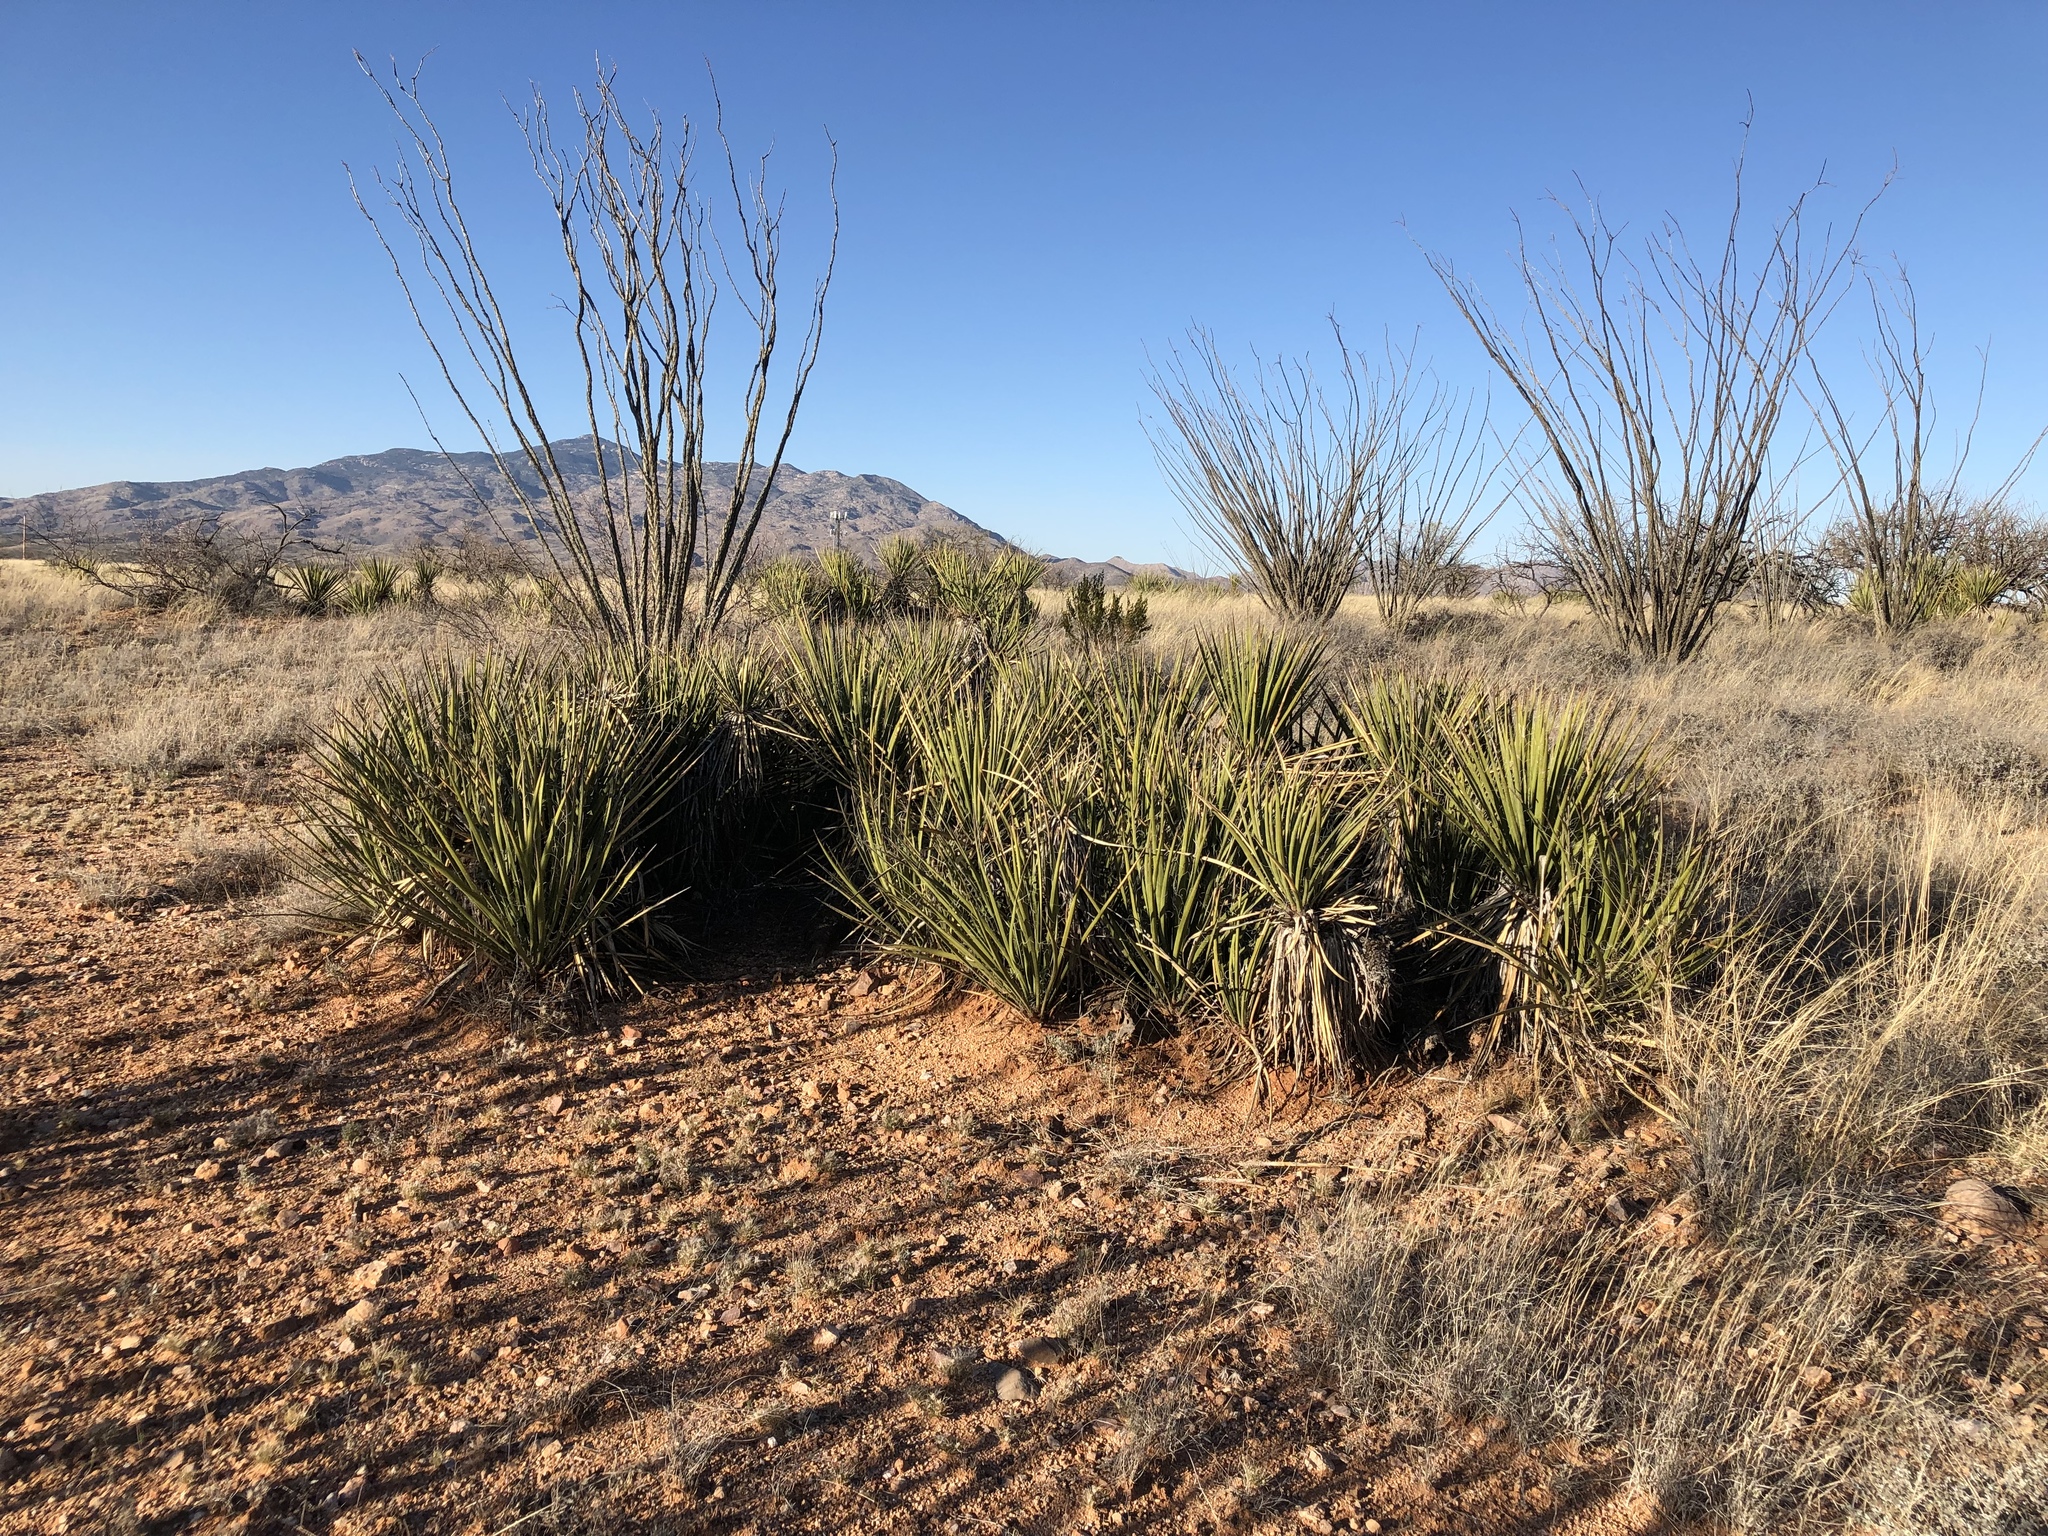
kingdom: Plantae
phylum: Tracheophyta
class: Liliopsida
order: Asparagales
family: Asparagaceae
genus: Yucca
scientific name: Yucca baccata
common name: Banana yucca
